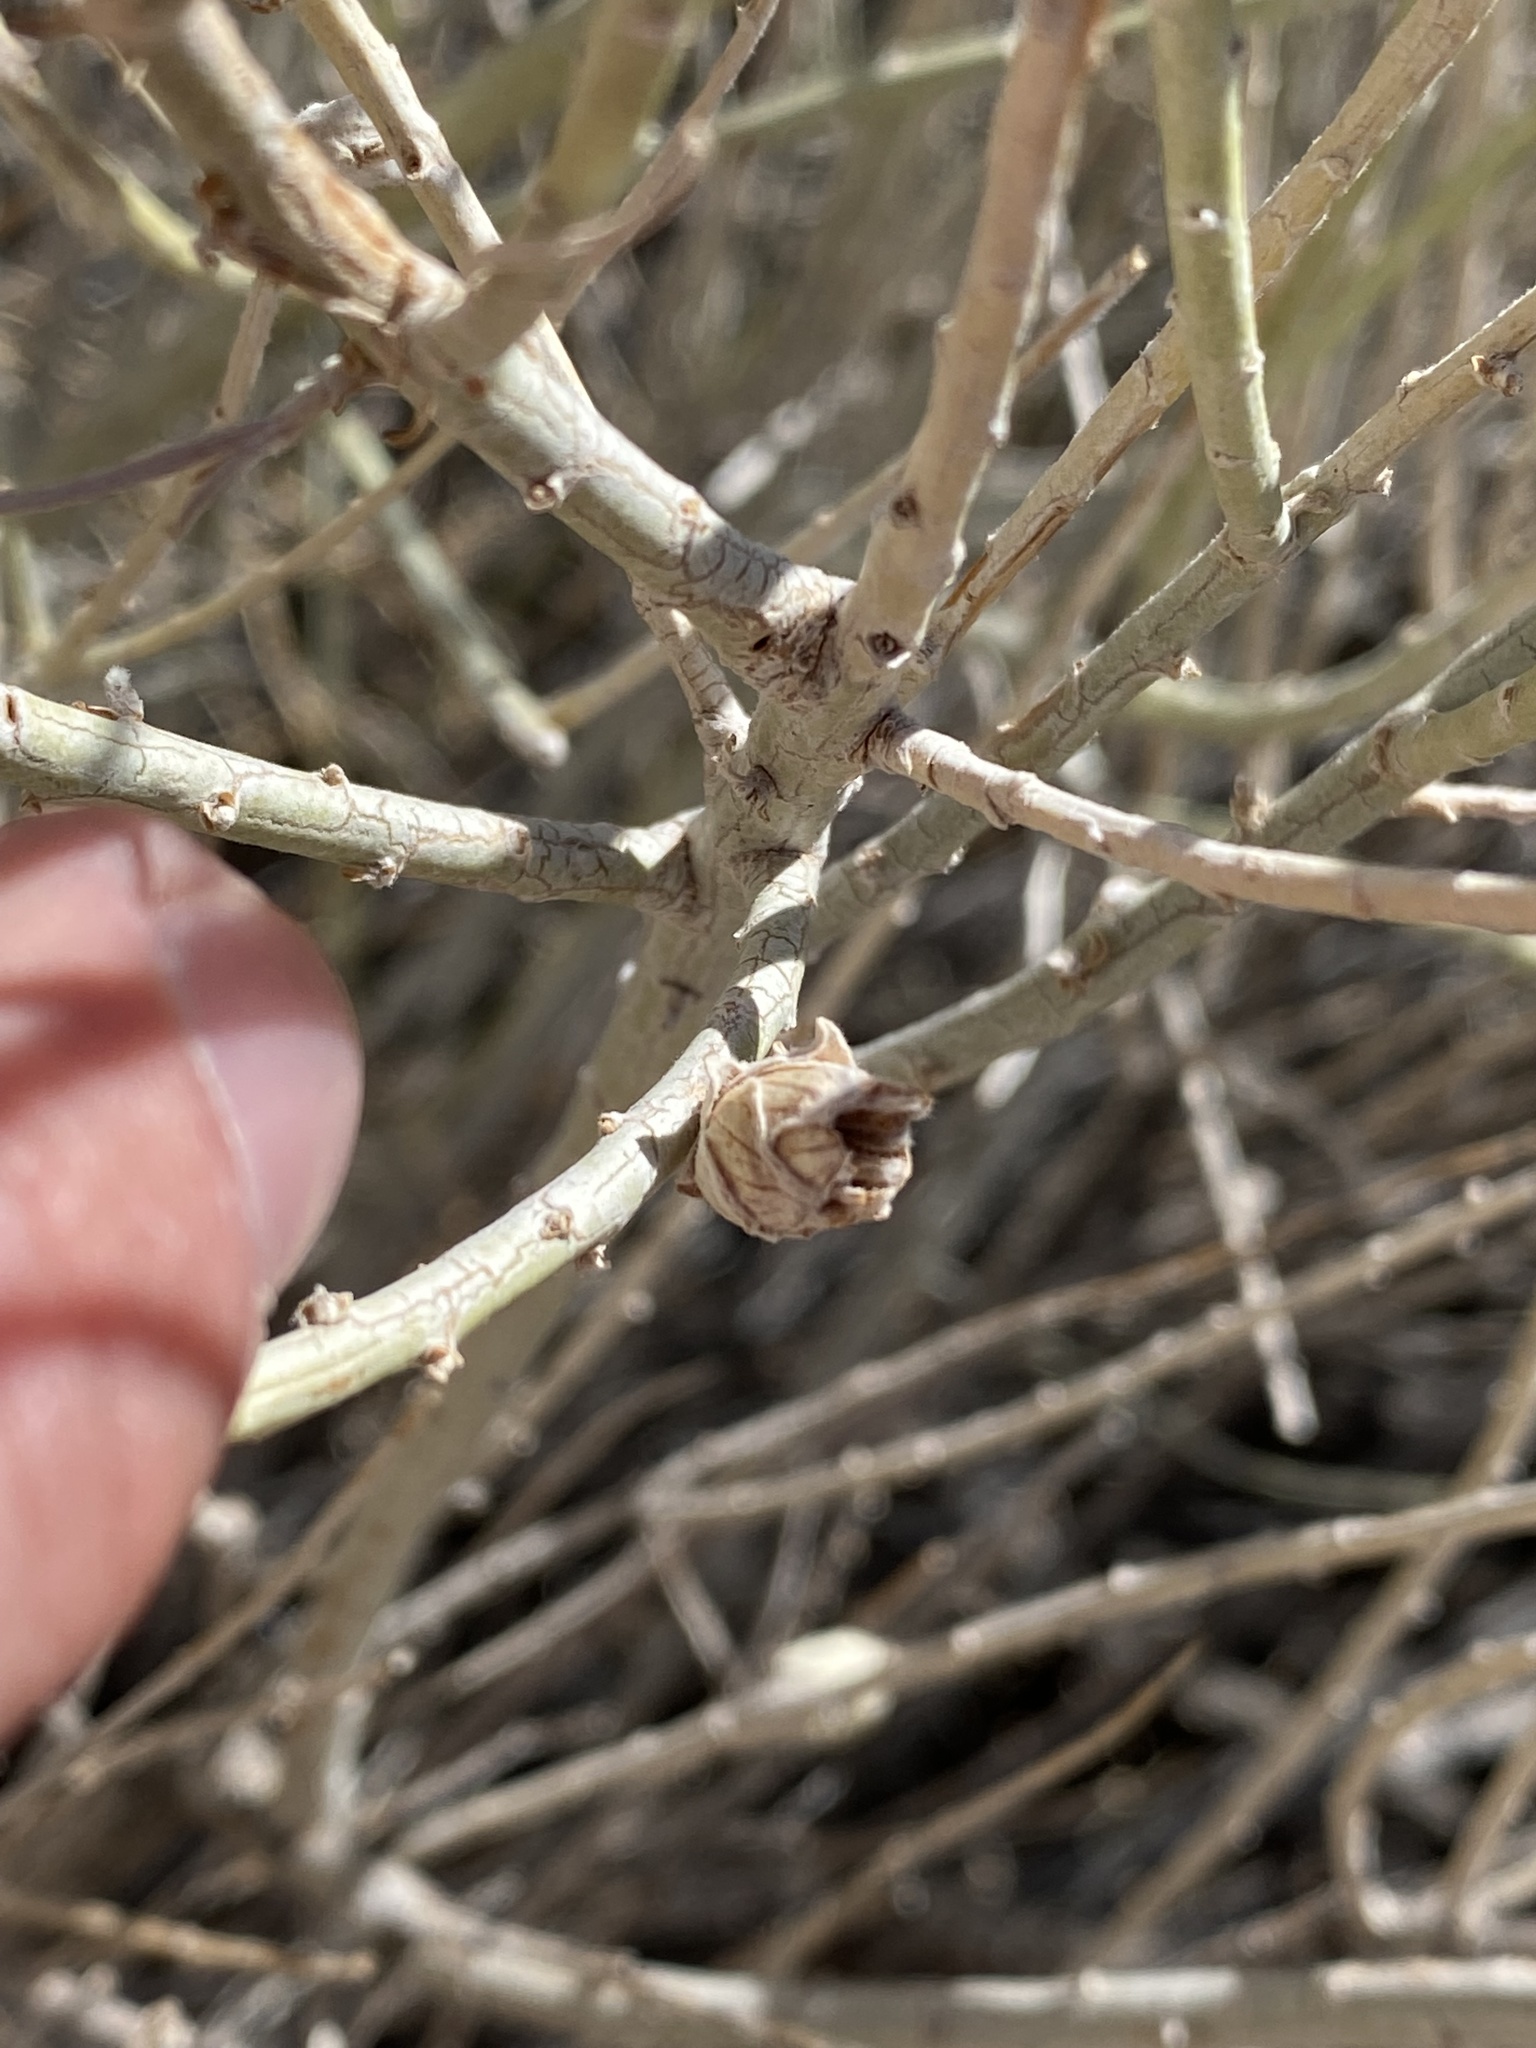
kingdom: Animalia
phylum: Arthropoda
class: Insecta
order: Diptera
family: Cecidomyiidae
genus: Rhopalomyia
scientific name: Rhopalomyia ericameriae
